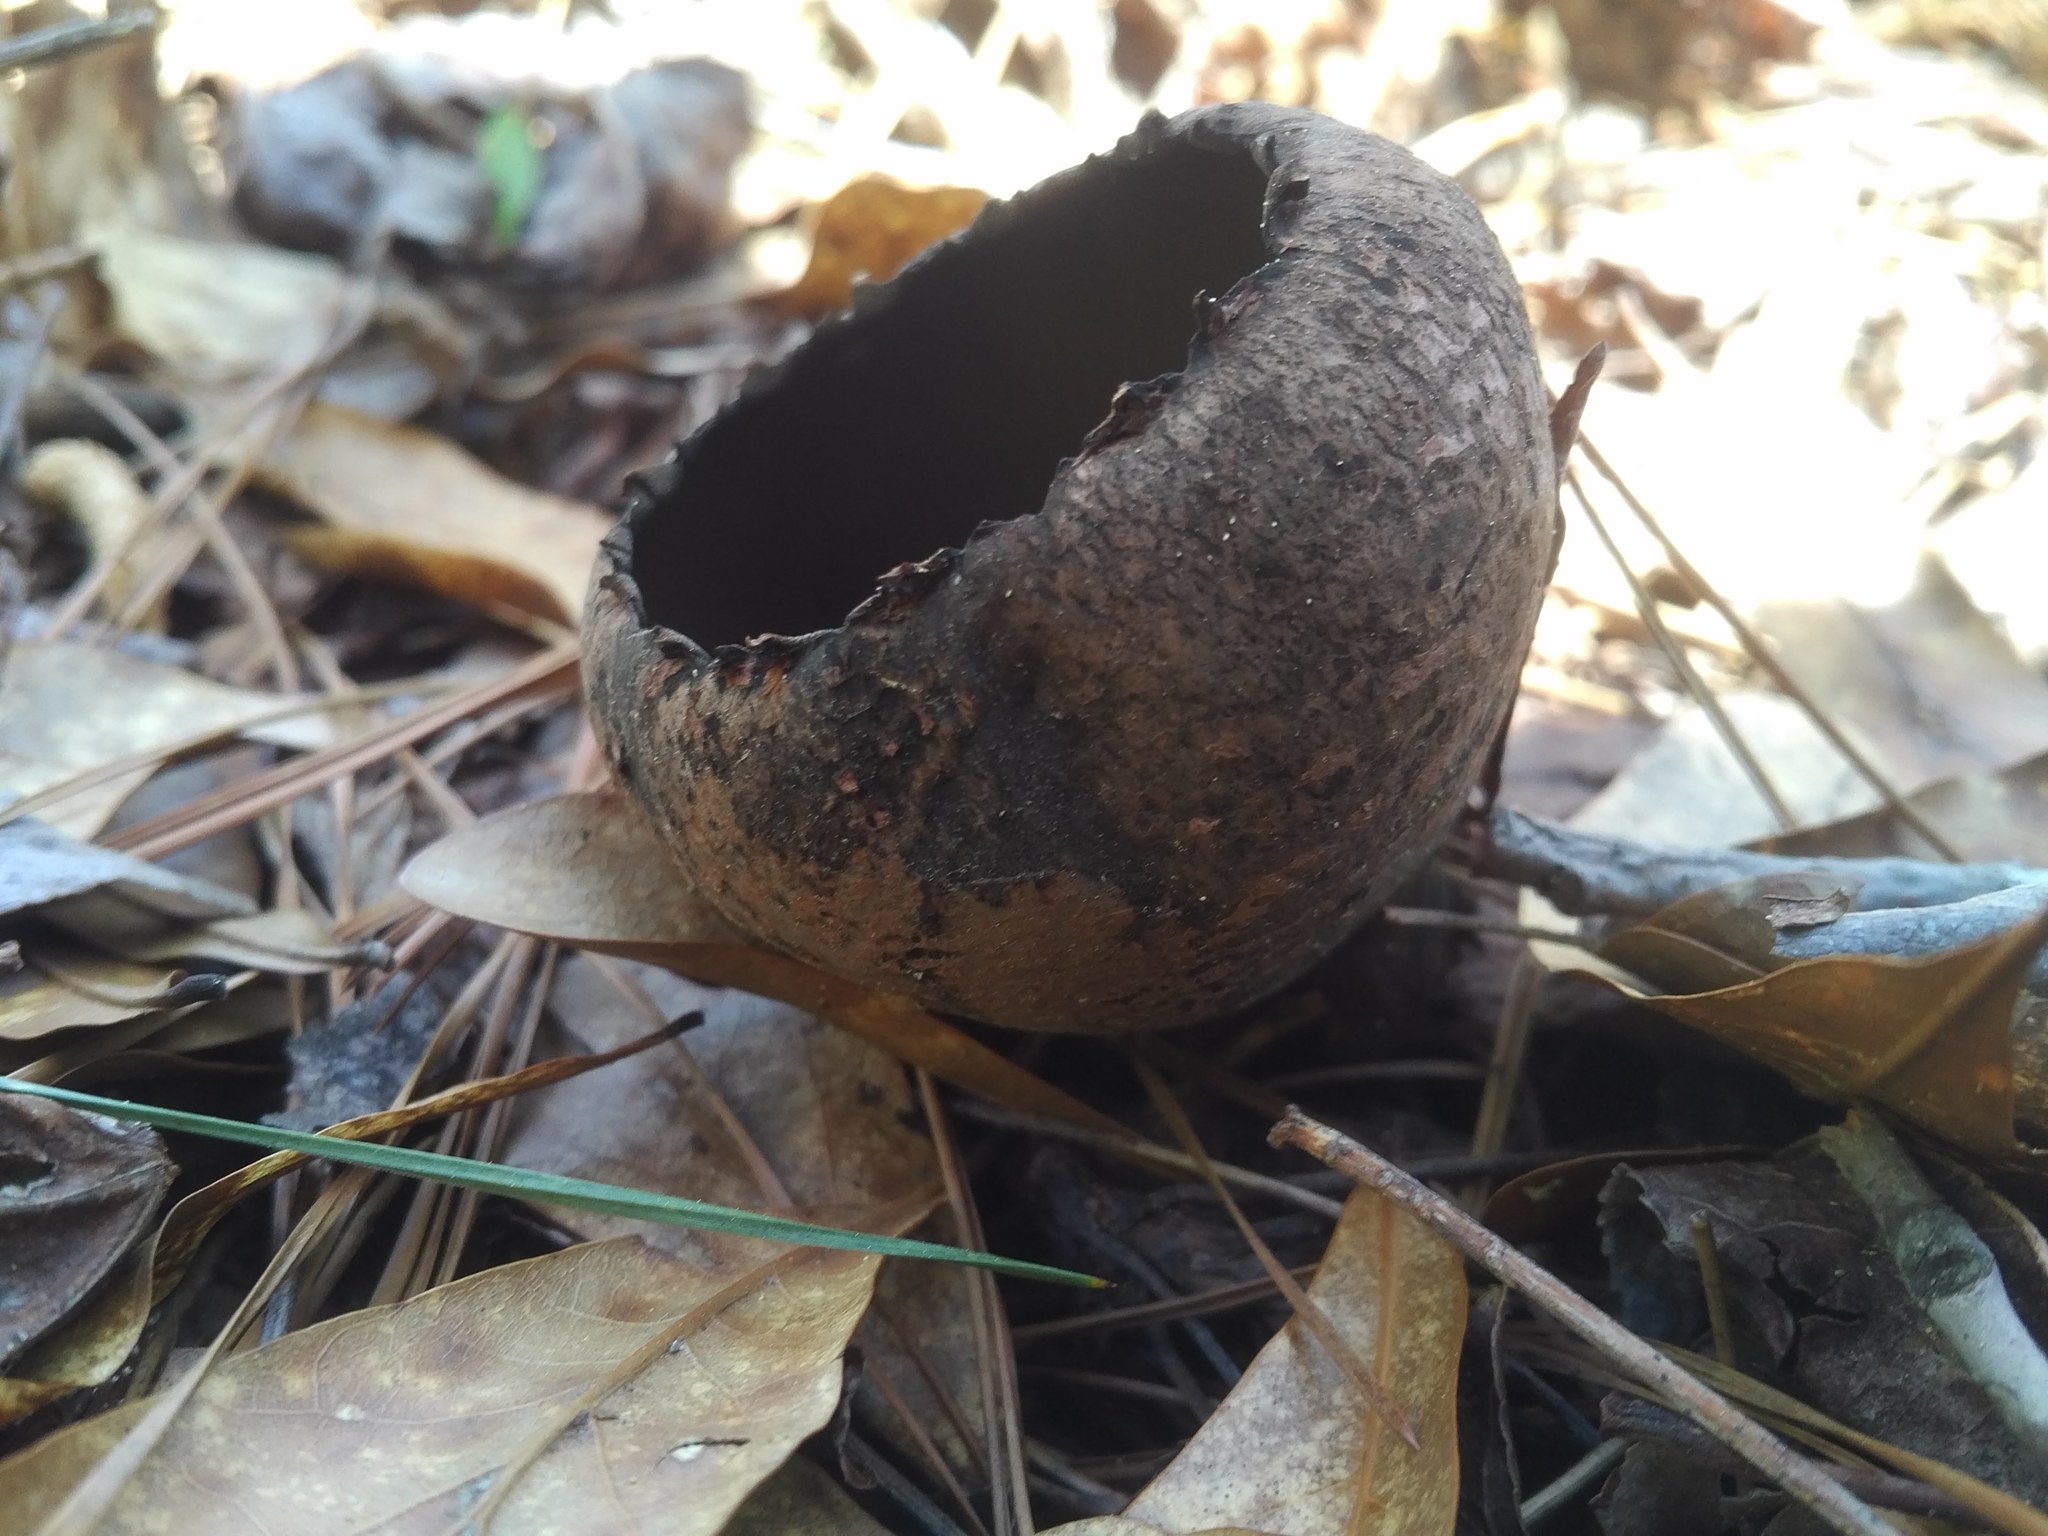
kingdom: Fungi
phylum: Ascomycota
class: Pezizomycetes
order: Pezizales
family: Sarcosomataceae
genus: Urnula
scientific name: Urnula craterium
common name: Devil's urn
